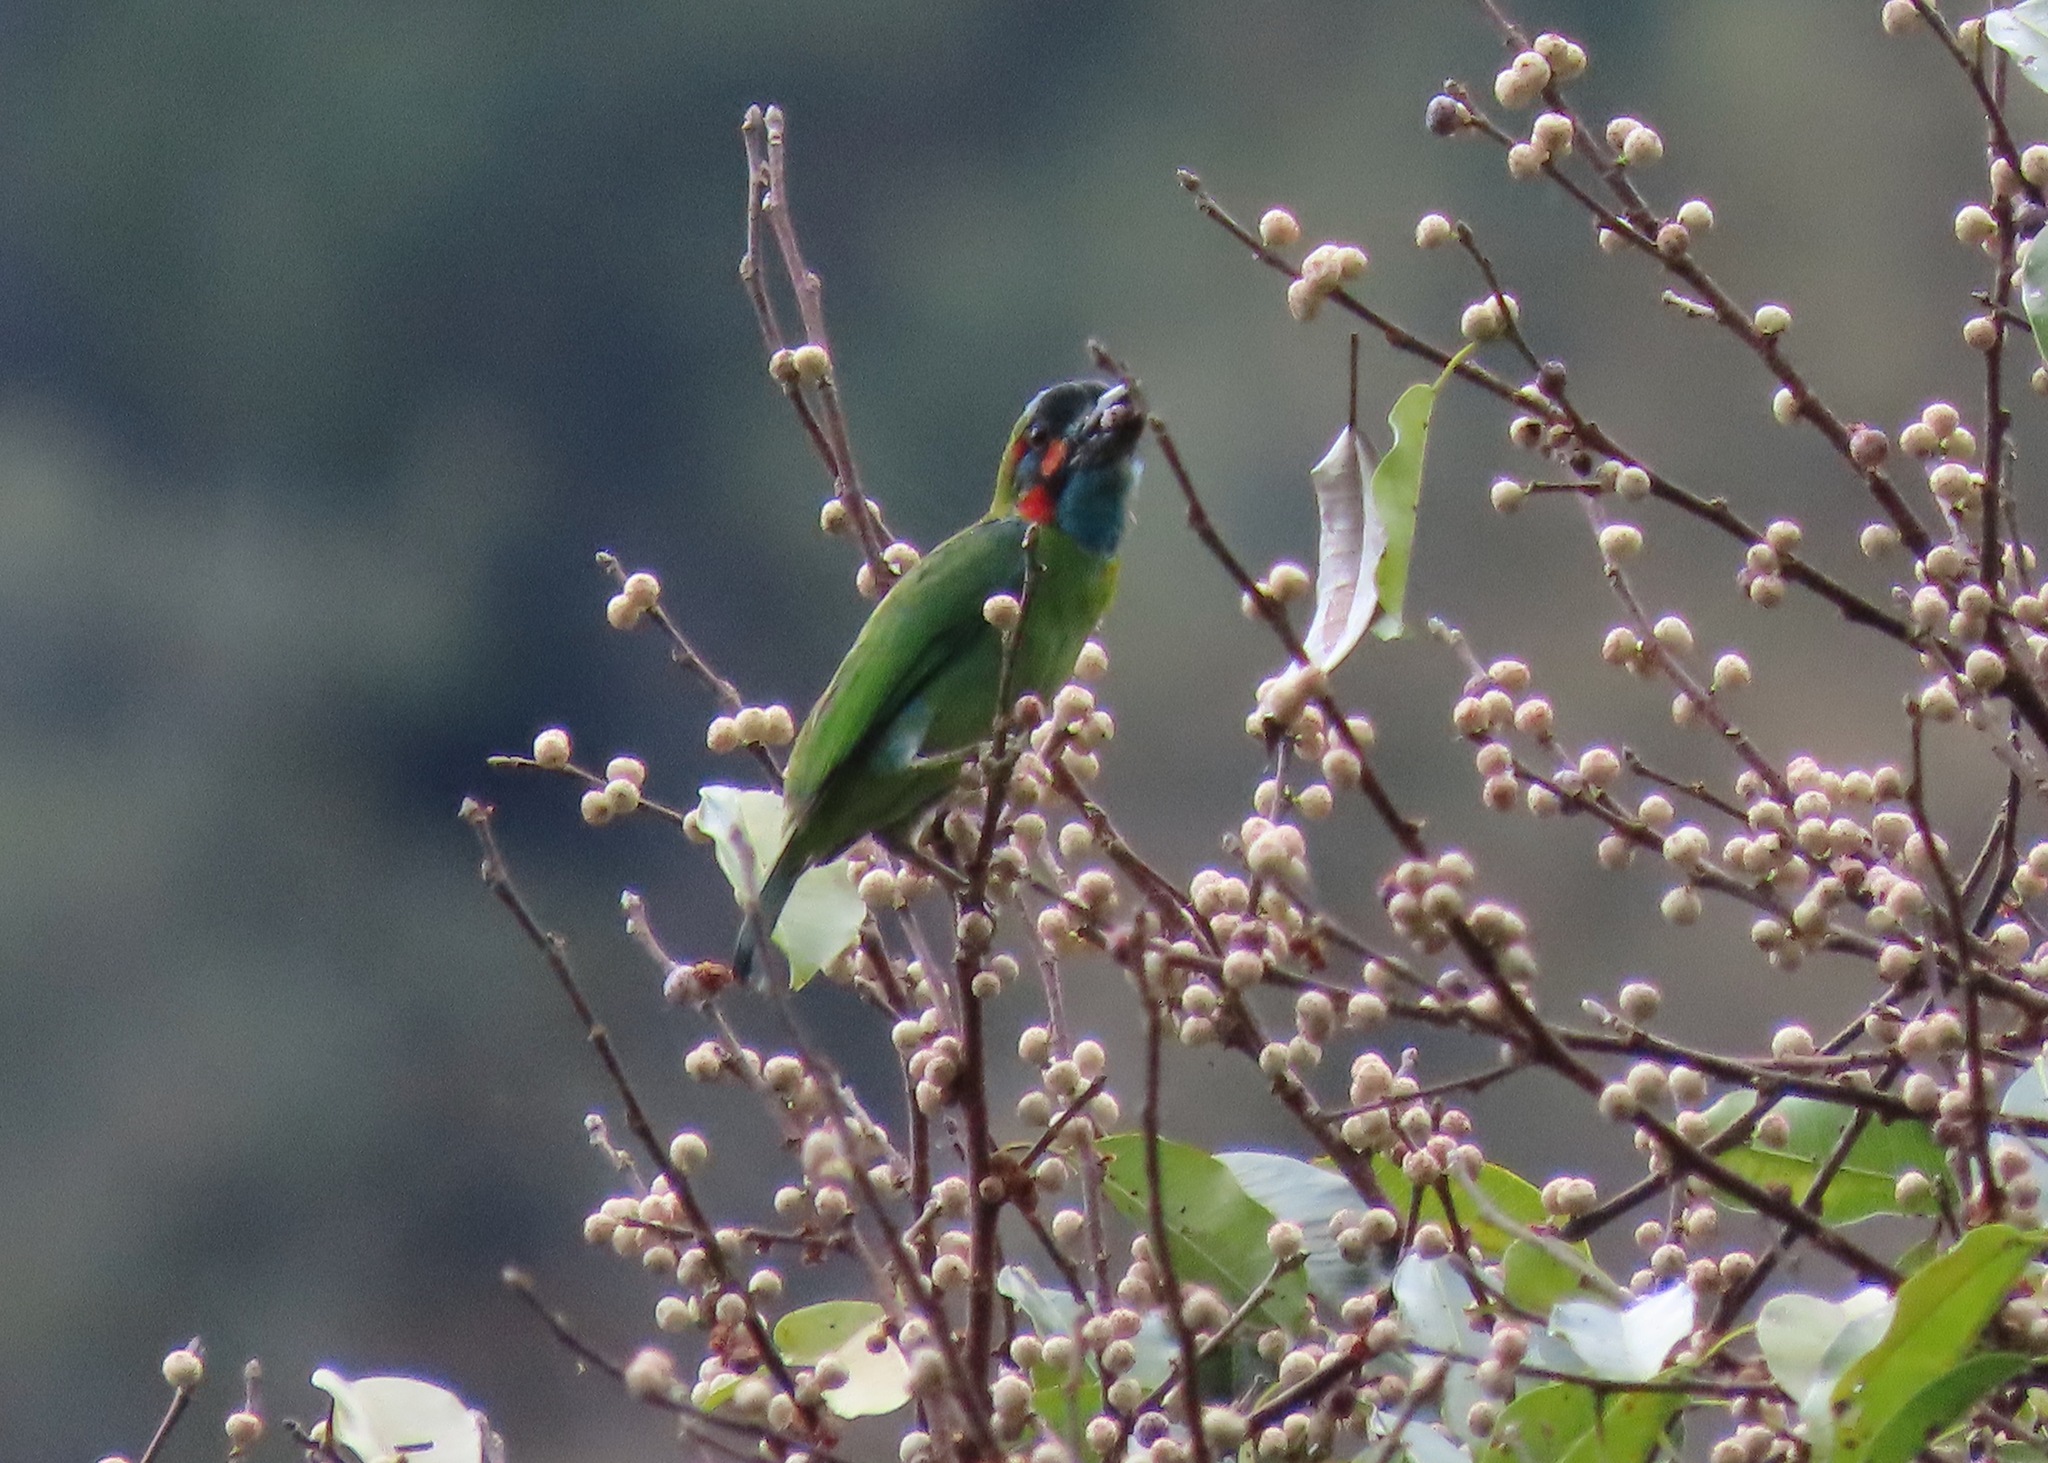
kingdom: Animalia
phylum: Chordata
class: Aves
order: Piciformes
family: Megalaimidae
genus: Psilopogon
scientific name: Psilopogon duvaucelii
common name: Blue-eared barbet
